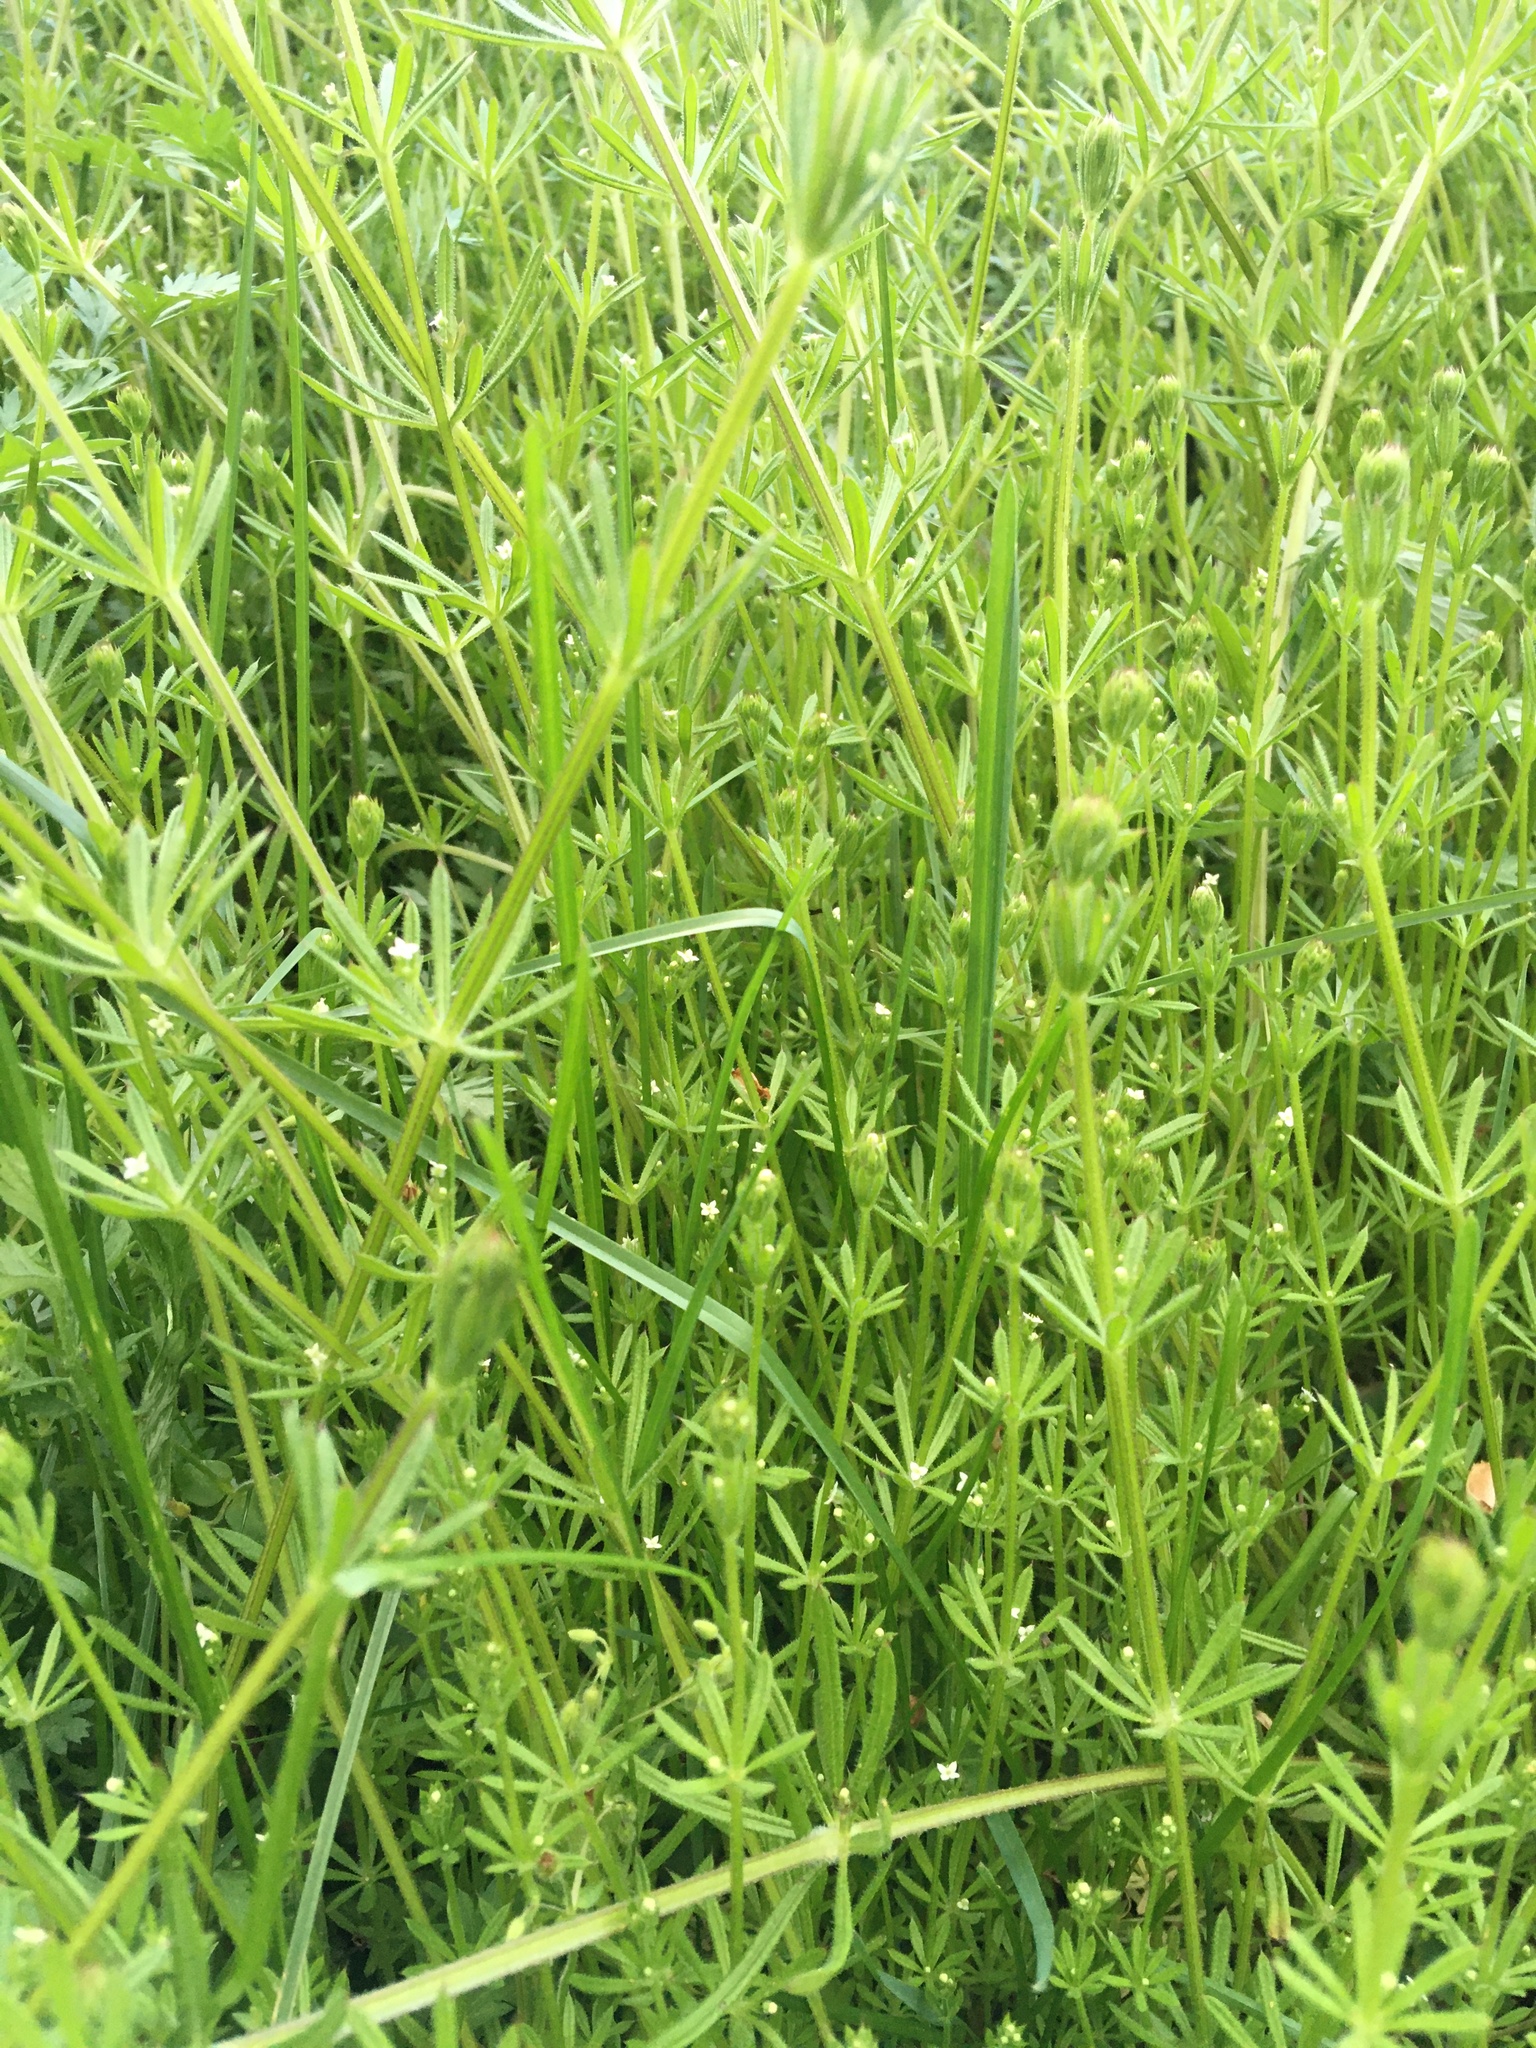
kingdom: Plantae
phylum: Tracheophyta
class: Magnoliopsida
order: Gentianales
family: Rubiaceae
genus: Galium
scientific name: Galium aparine
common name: Cleavers
